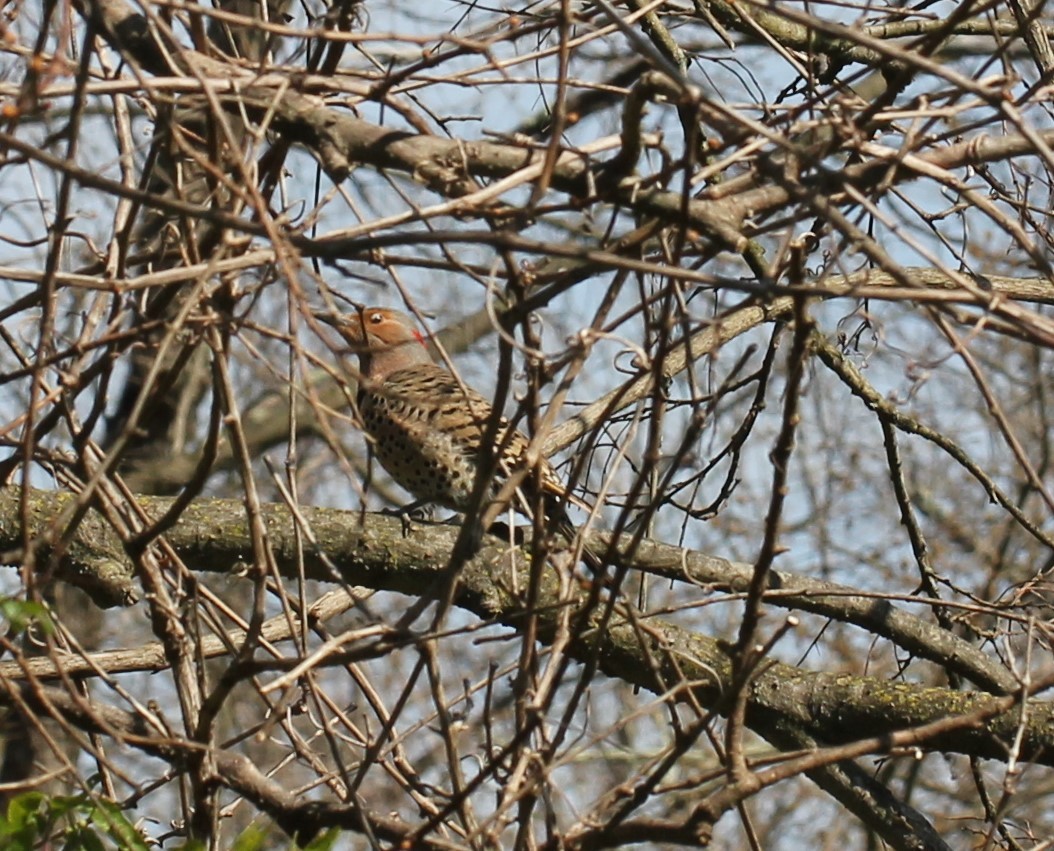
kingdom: Animalia
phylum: Chordata
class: Aves
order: Piciformes
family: Picidae
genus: Colaptes
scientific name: Colaptes auratus
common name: Northern flicker
